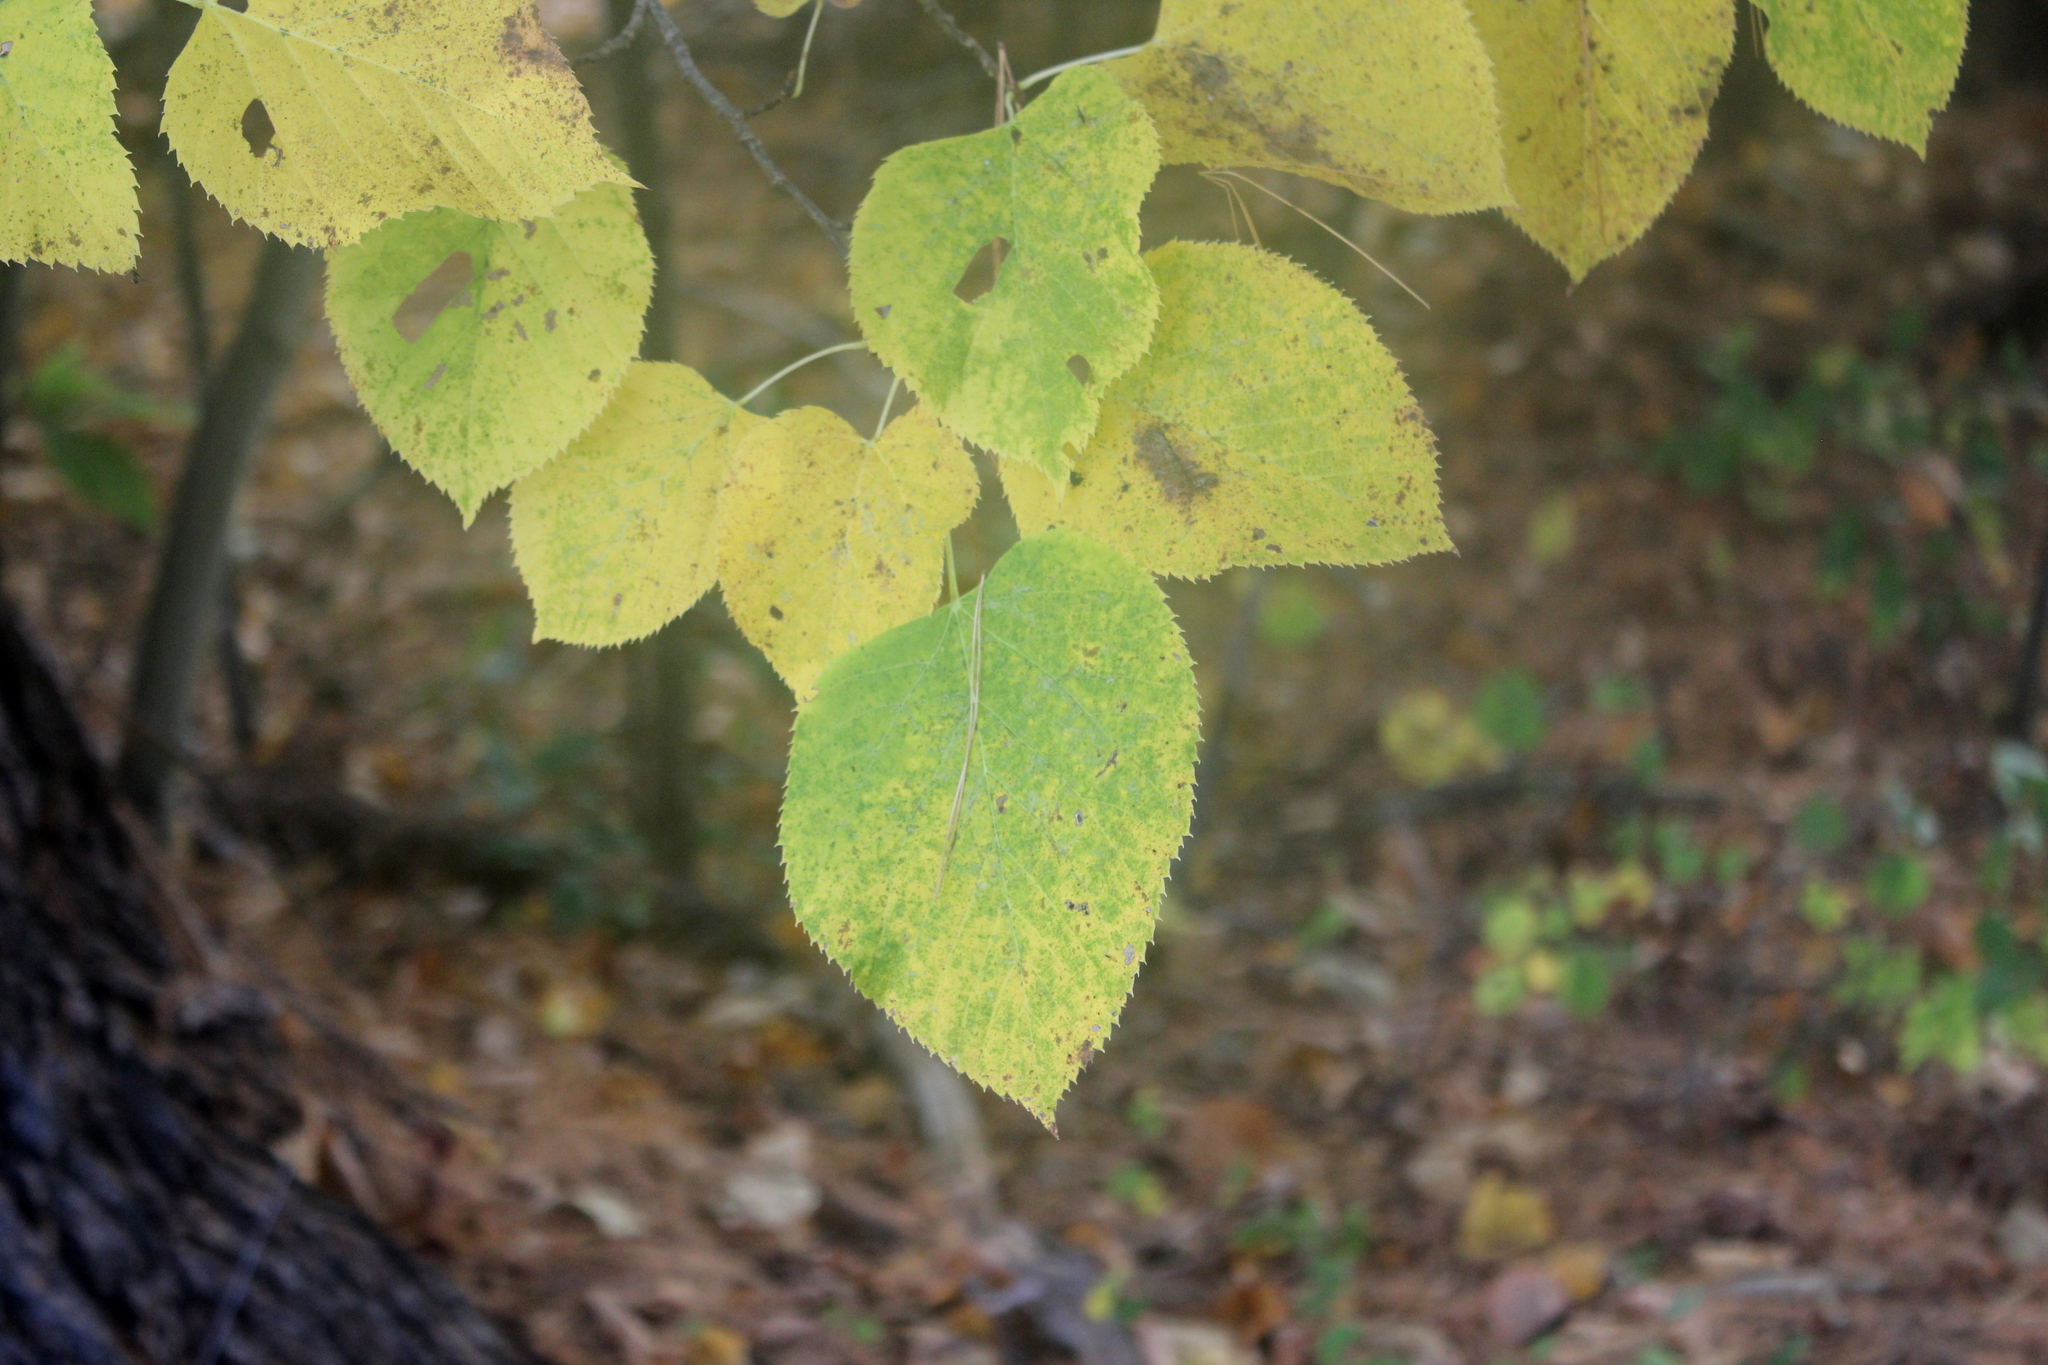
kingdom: Plantae
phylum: Tracheophyta
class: Magnoliopsida
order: Malvales
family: Malvaceae
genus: Tilia
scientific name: Tilia americana
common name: Basswood
